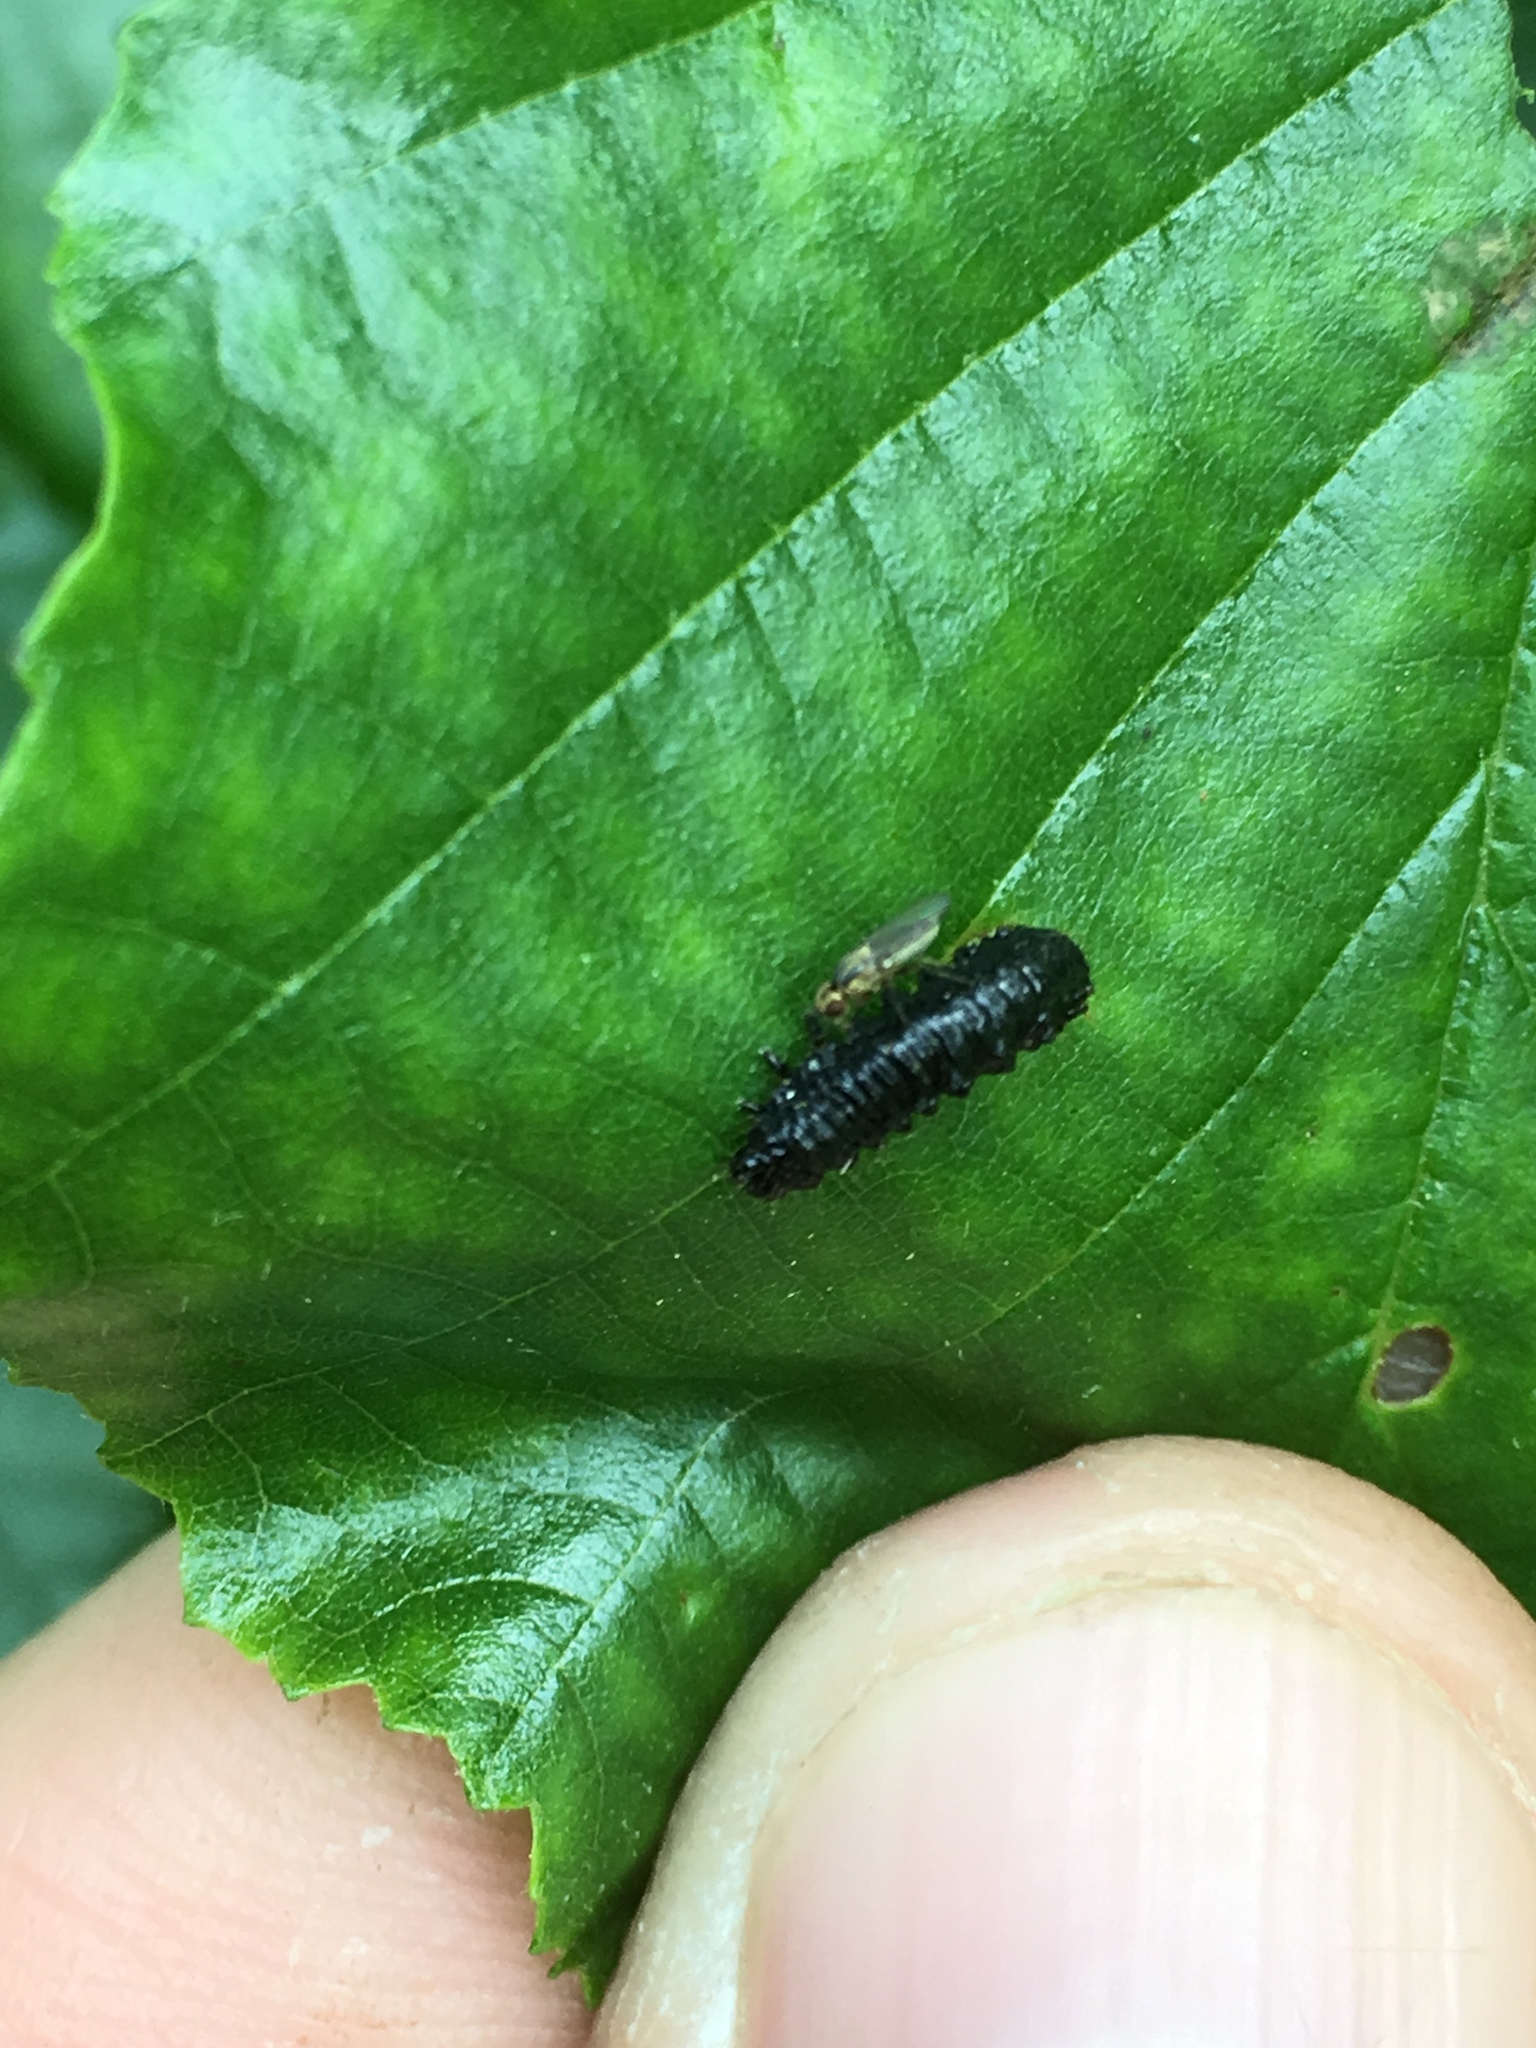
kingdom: Animalia
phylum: Arthropoda
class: Insecta
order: Coleoptera
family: Chrysomelidae
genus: Agelastica
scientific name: Agelastica alni
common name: Alder leaf beetle
